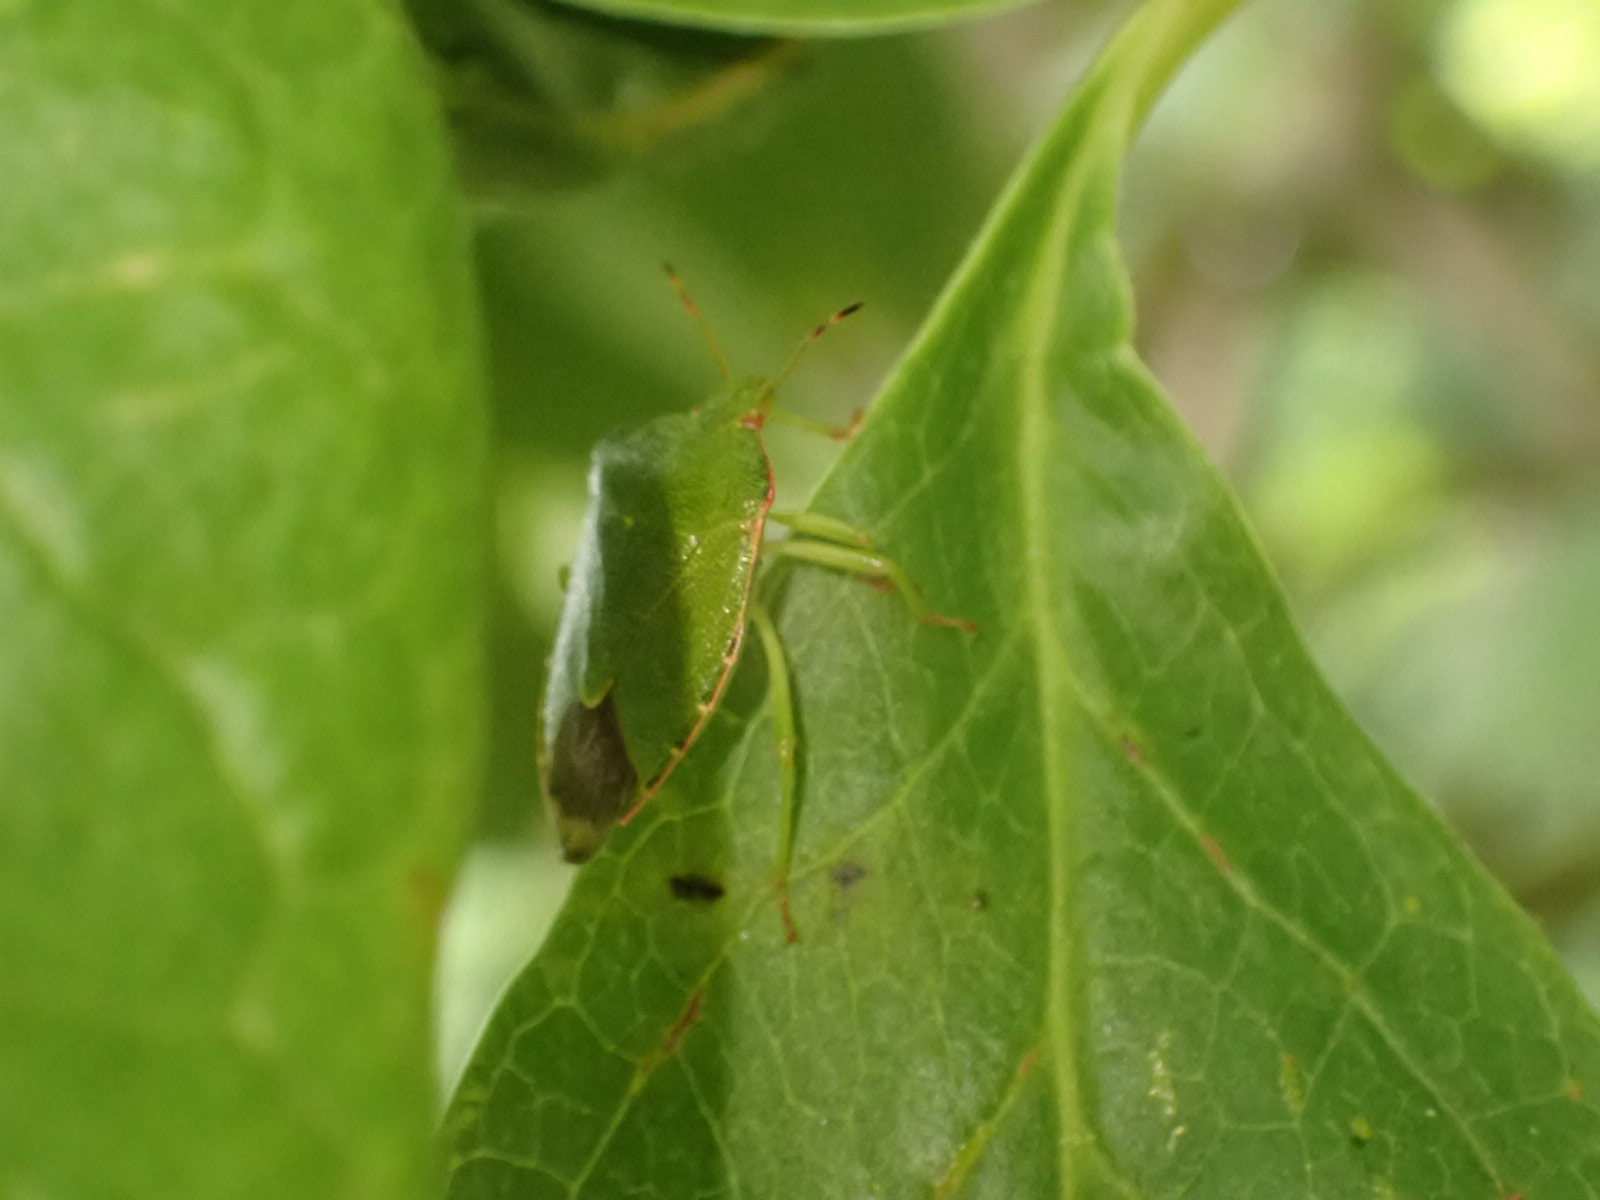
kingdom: Animalia
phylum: Arthropoda
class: Insecta
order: Hemiptera
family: Pentatomidae
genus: Palomena
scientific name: Palomena prasina
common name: Green shieldbug
